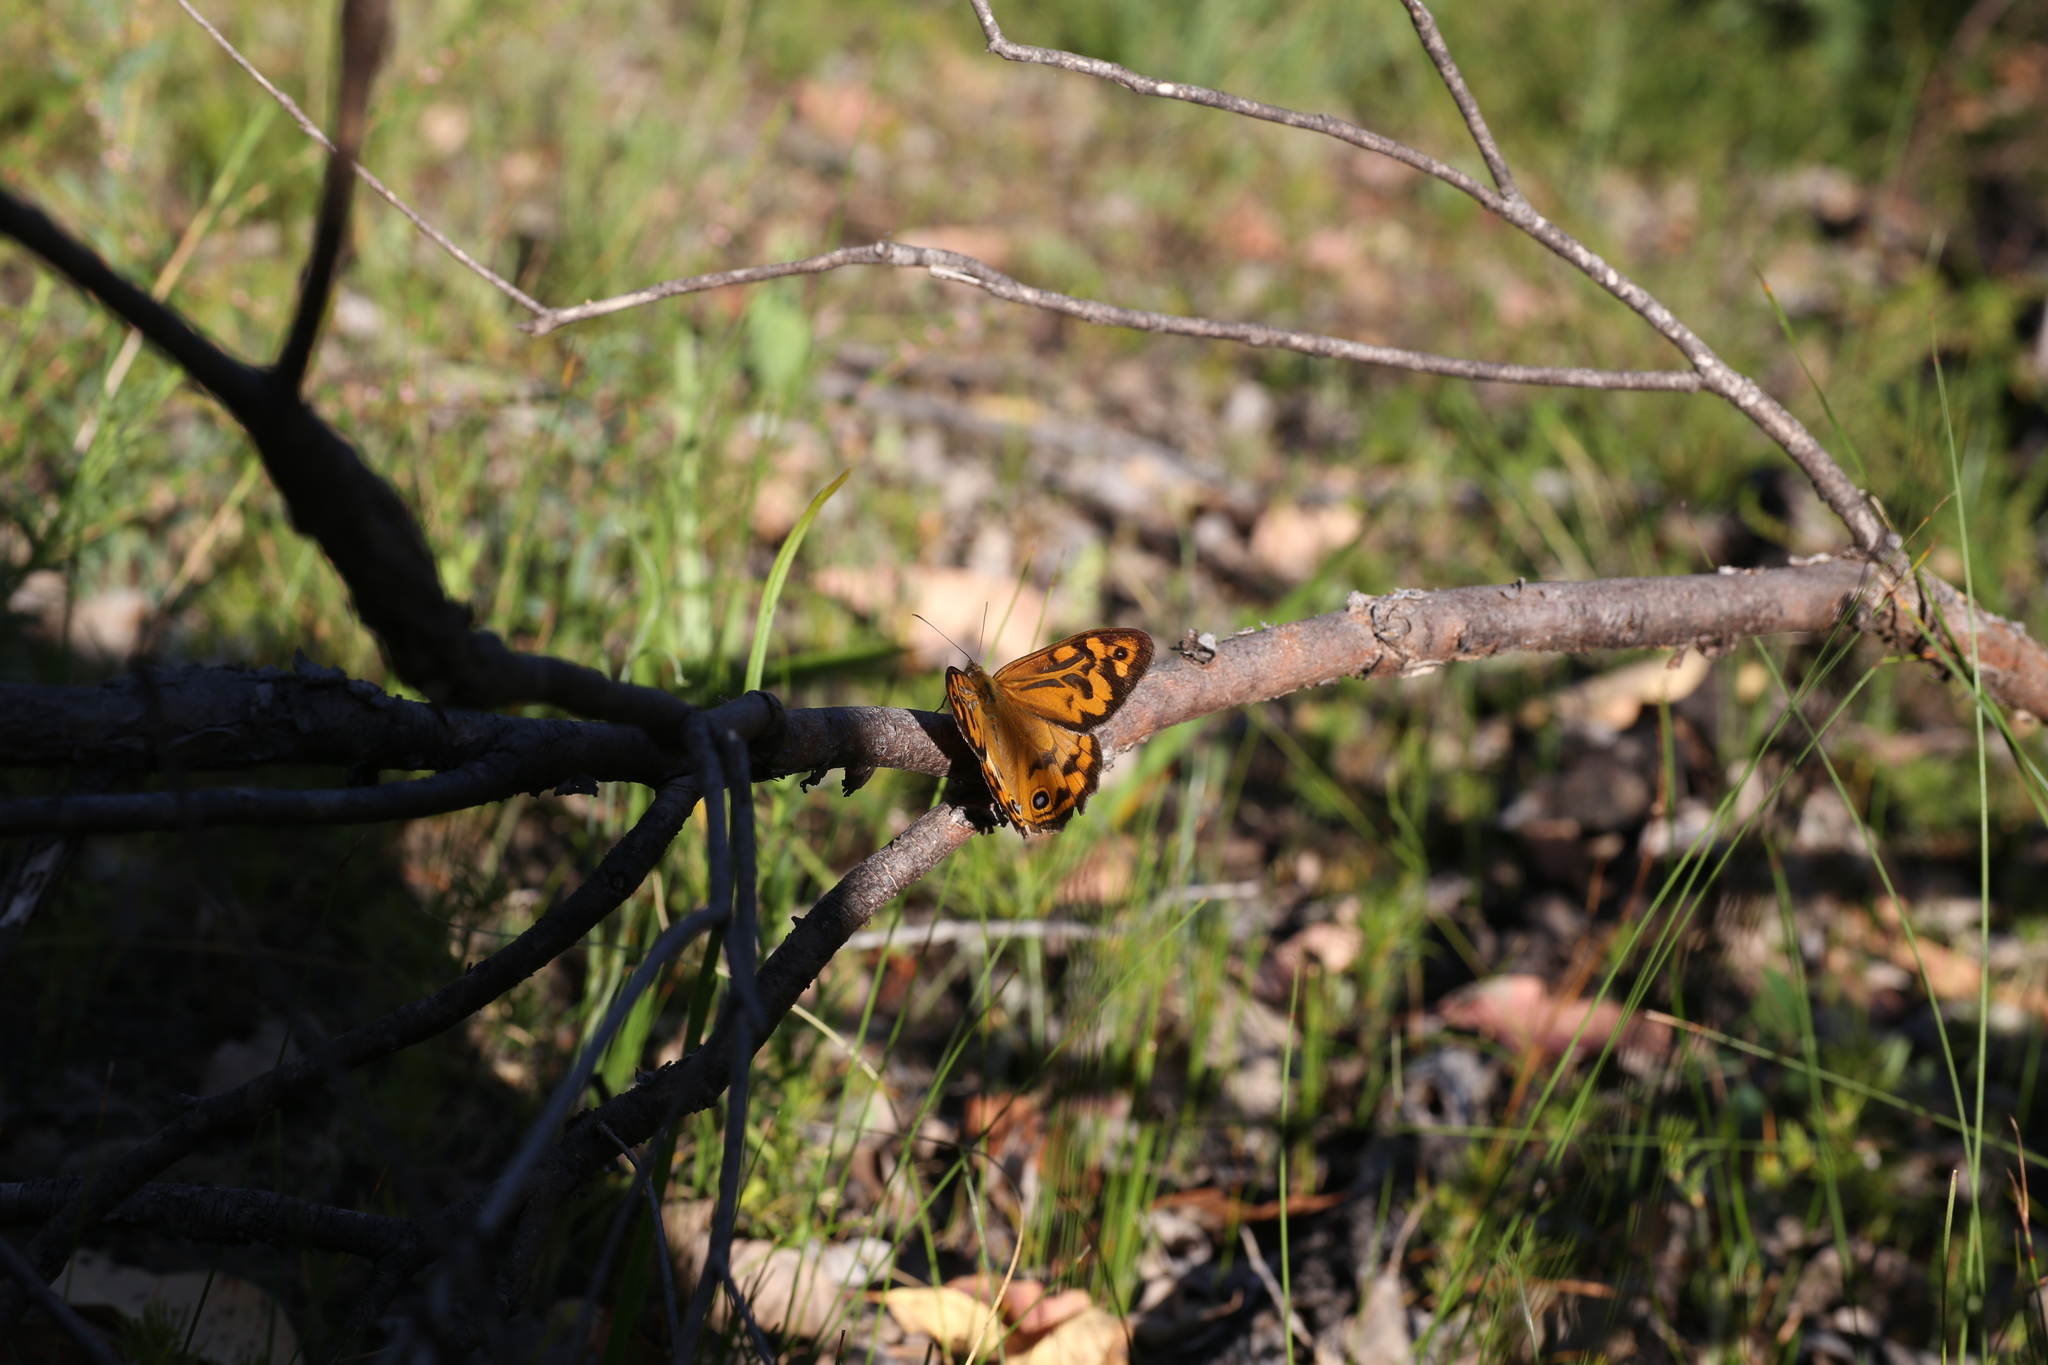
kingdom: Animalia
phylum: Arthropoda
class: Insecta
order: Lepidoptera
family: Nymphalidae
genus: Heteronympha
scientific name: Heteronympha merope
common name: Common brown
